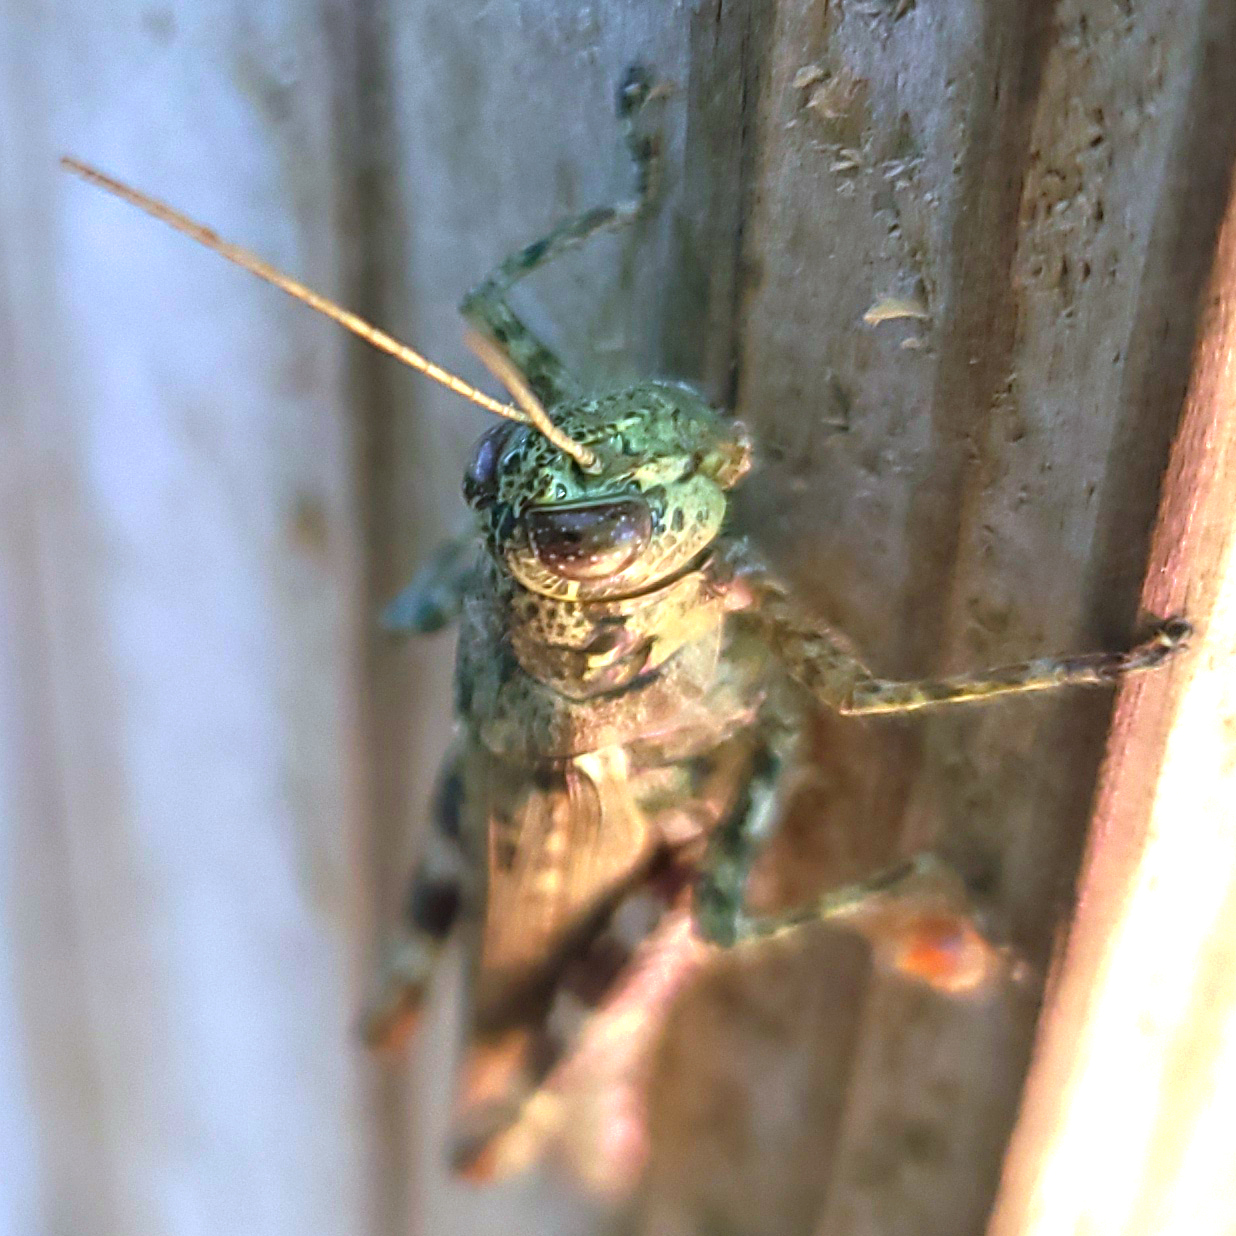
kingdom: Animalia
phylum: Arthropoda
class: Insecta
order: Orthoptera
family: Acrididae
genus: Melanoplus
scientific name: Melanoplus punctulatus
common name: Pine-tree spur-throat grasshopper
